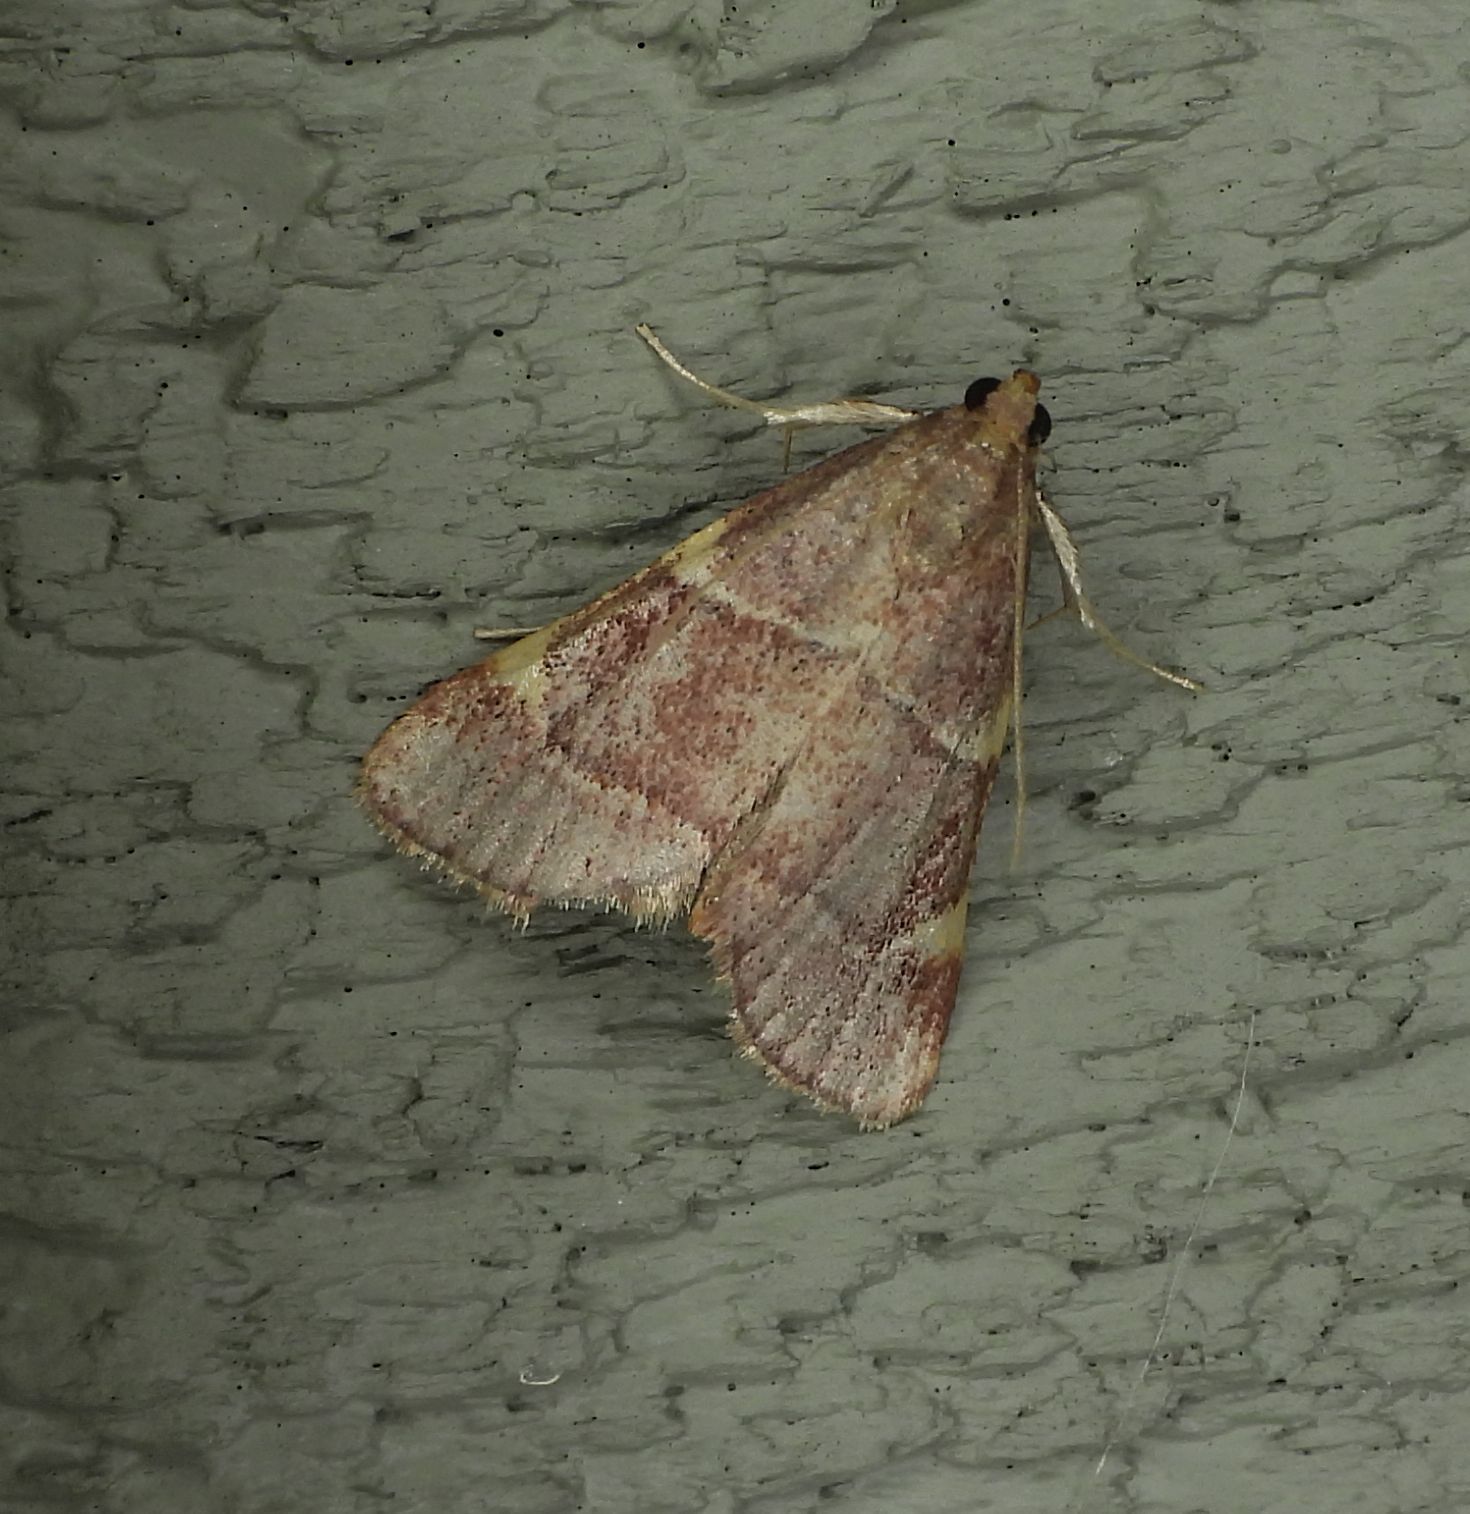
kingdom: Animalia
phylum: Arthropoda
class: Insecta
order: Lepidoptera
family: Pyralidae
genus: Hypsopygia
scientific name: Hypsopygia
